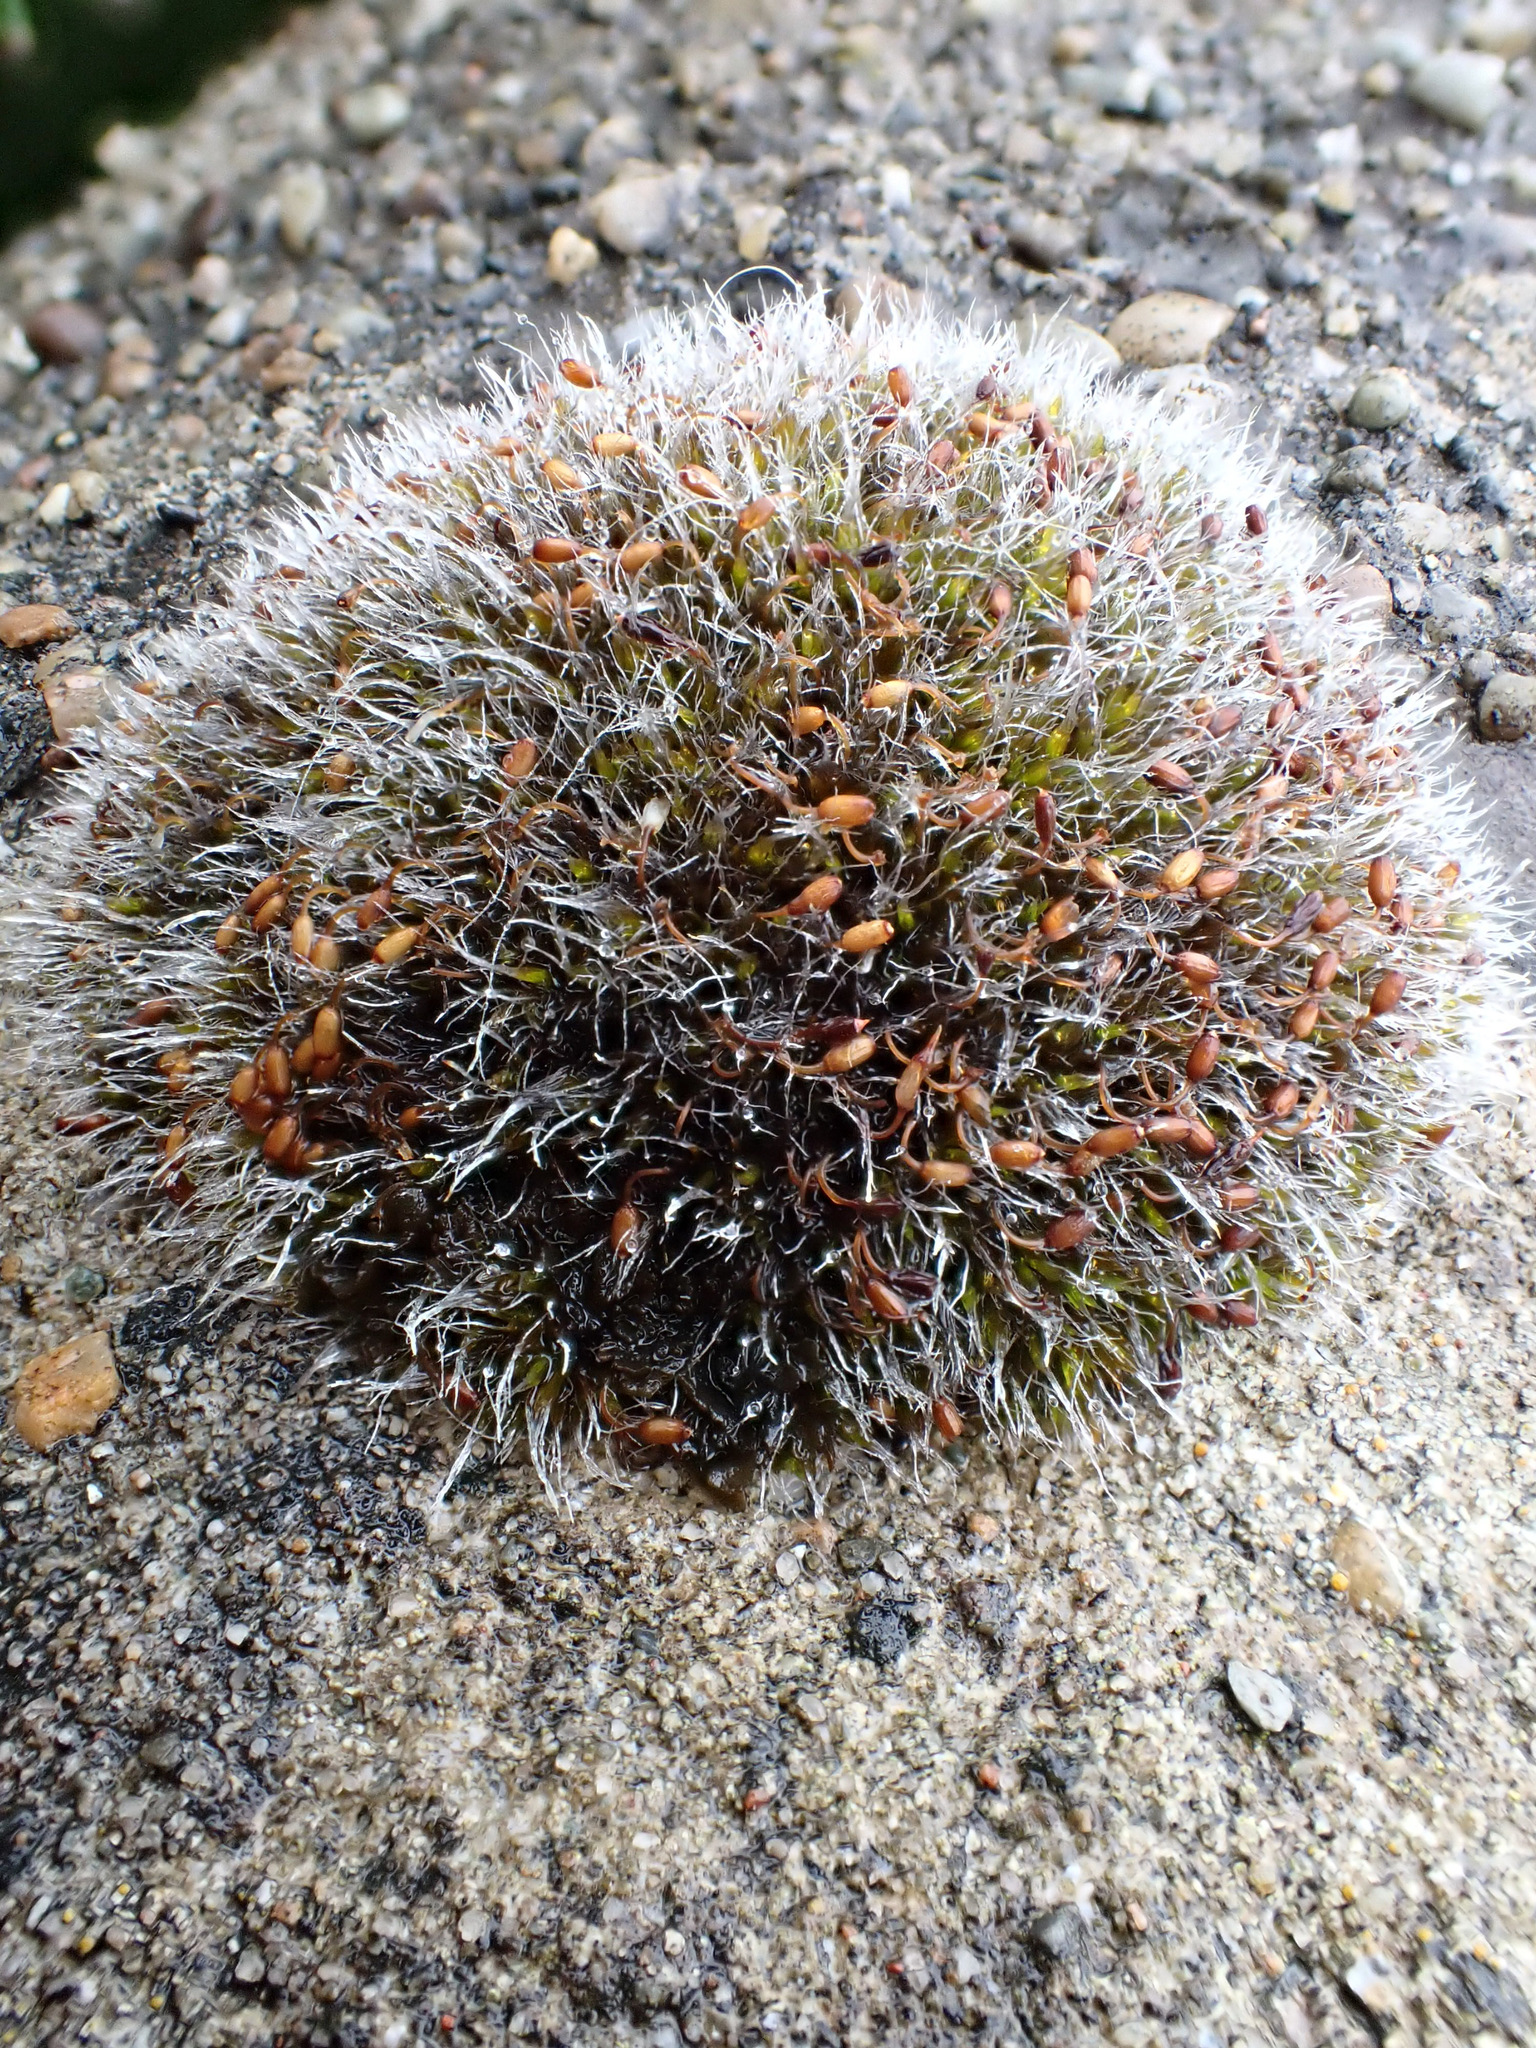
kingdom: Plantae
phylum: Bryophyta
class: Bryopsida
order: Grimmiales
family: Grimmiaceae
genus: Grimmia
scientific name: Grimmia pulvinata
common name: Grey-cushioned grimmia
